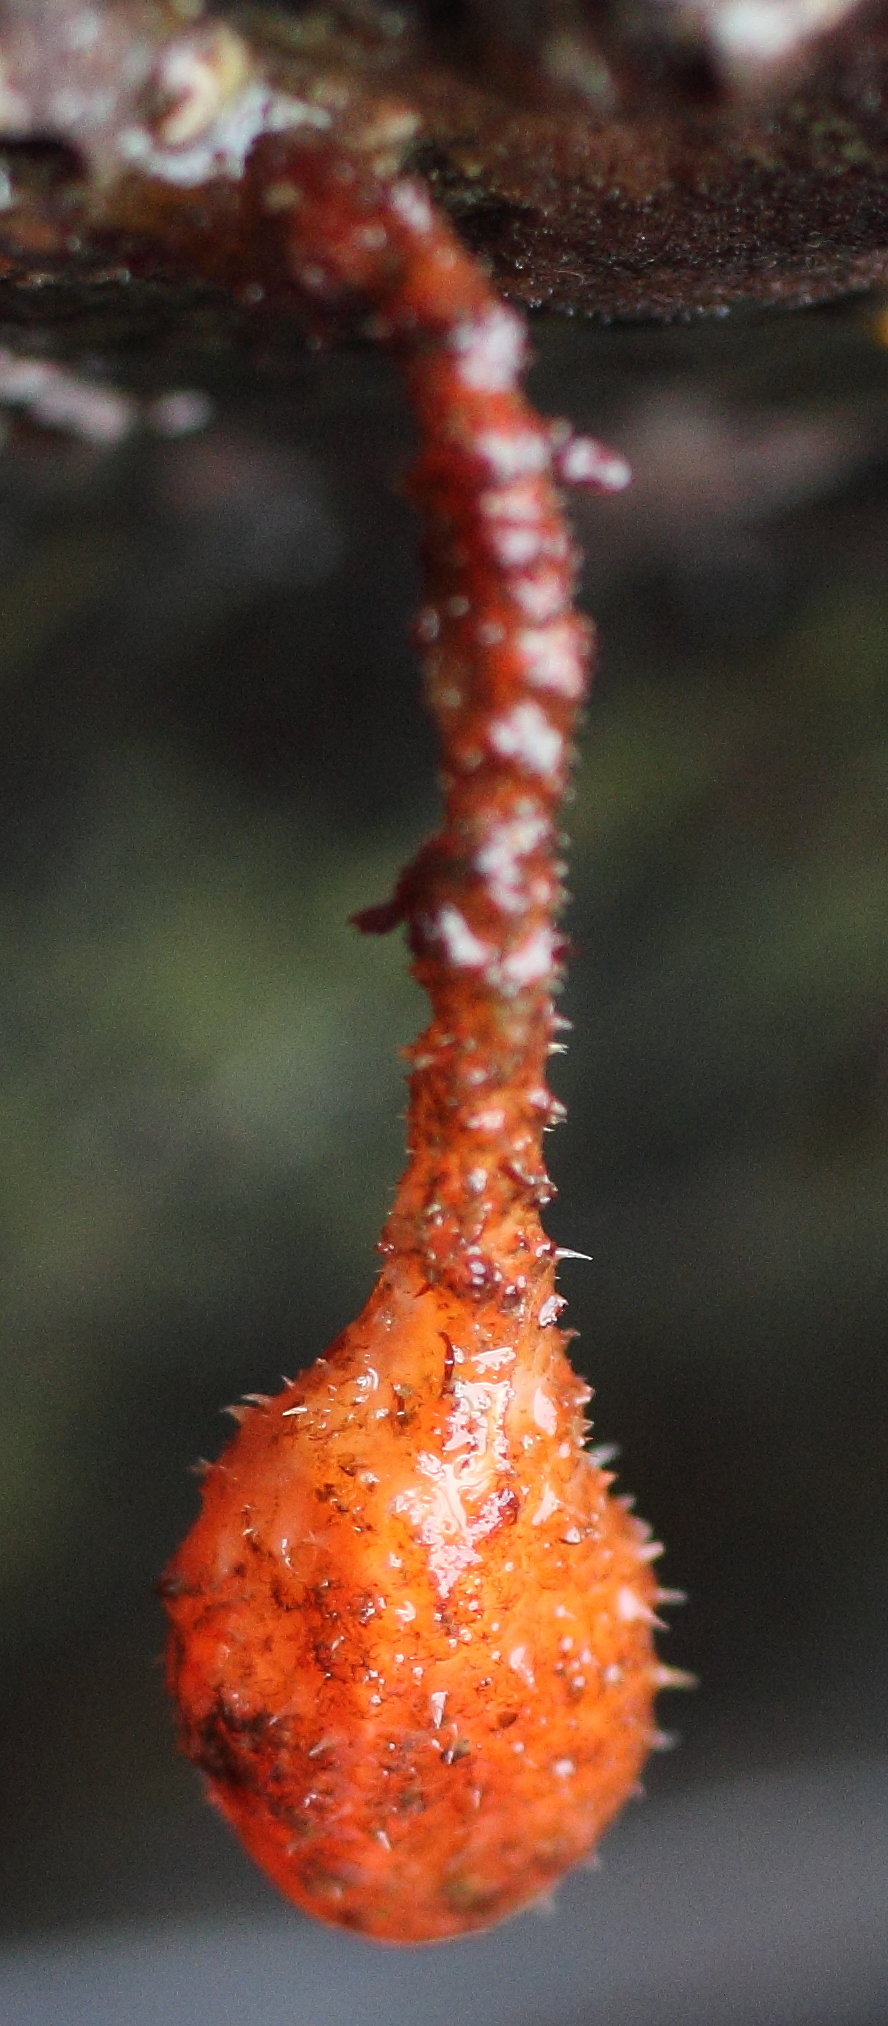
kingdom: Animalia
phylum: Chordata
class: Ascidiacea
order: Stolidobranchia
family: Pyuridae
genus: Boltenia
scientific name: Boltenia villosa
